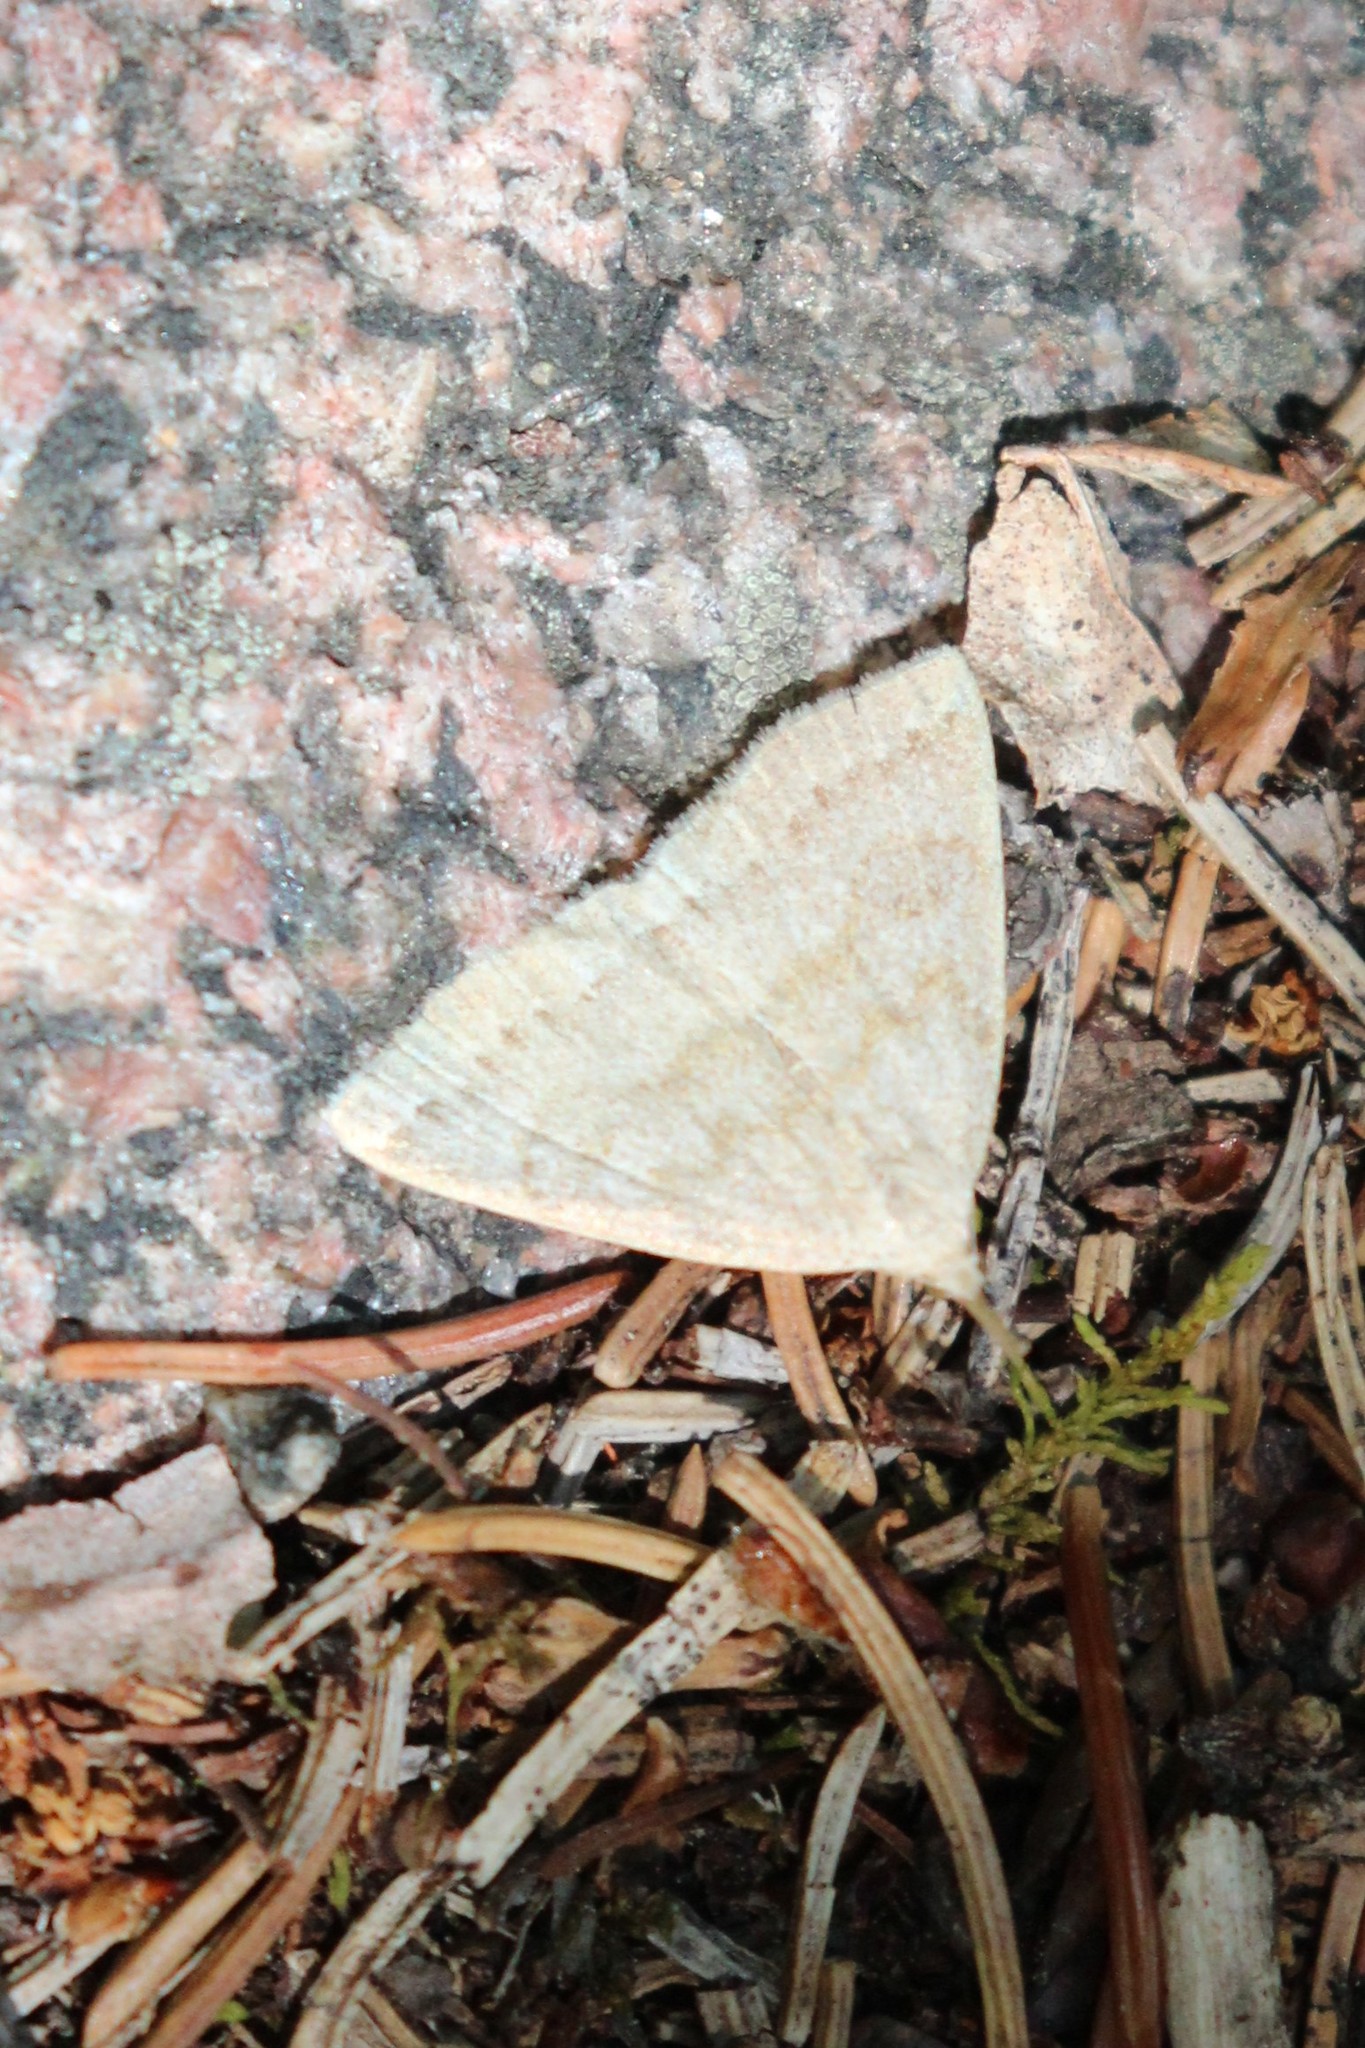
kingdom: Animalia
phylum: Arthropoda
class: Insecta
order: Lepidoptera
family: Erebidae
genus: Macrochilo
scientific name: Macrochilo morbidalis
